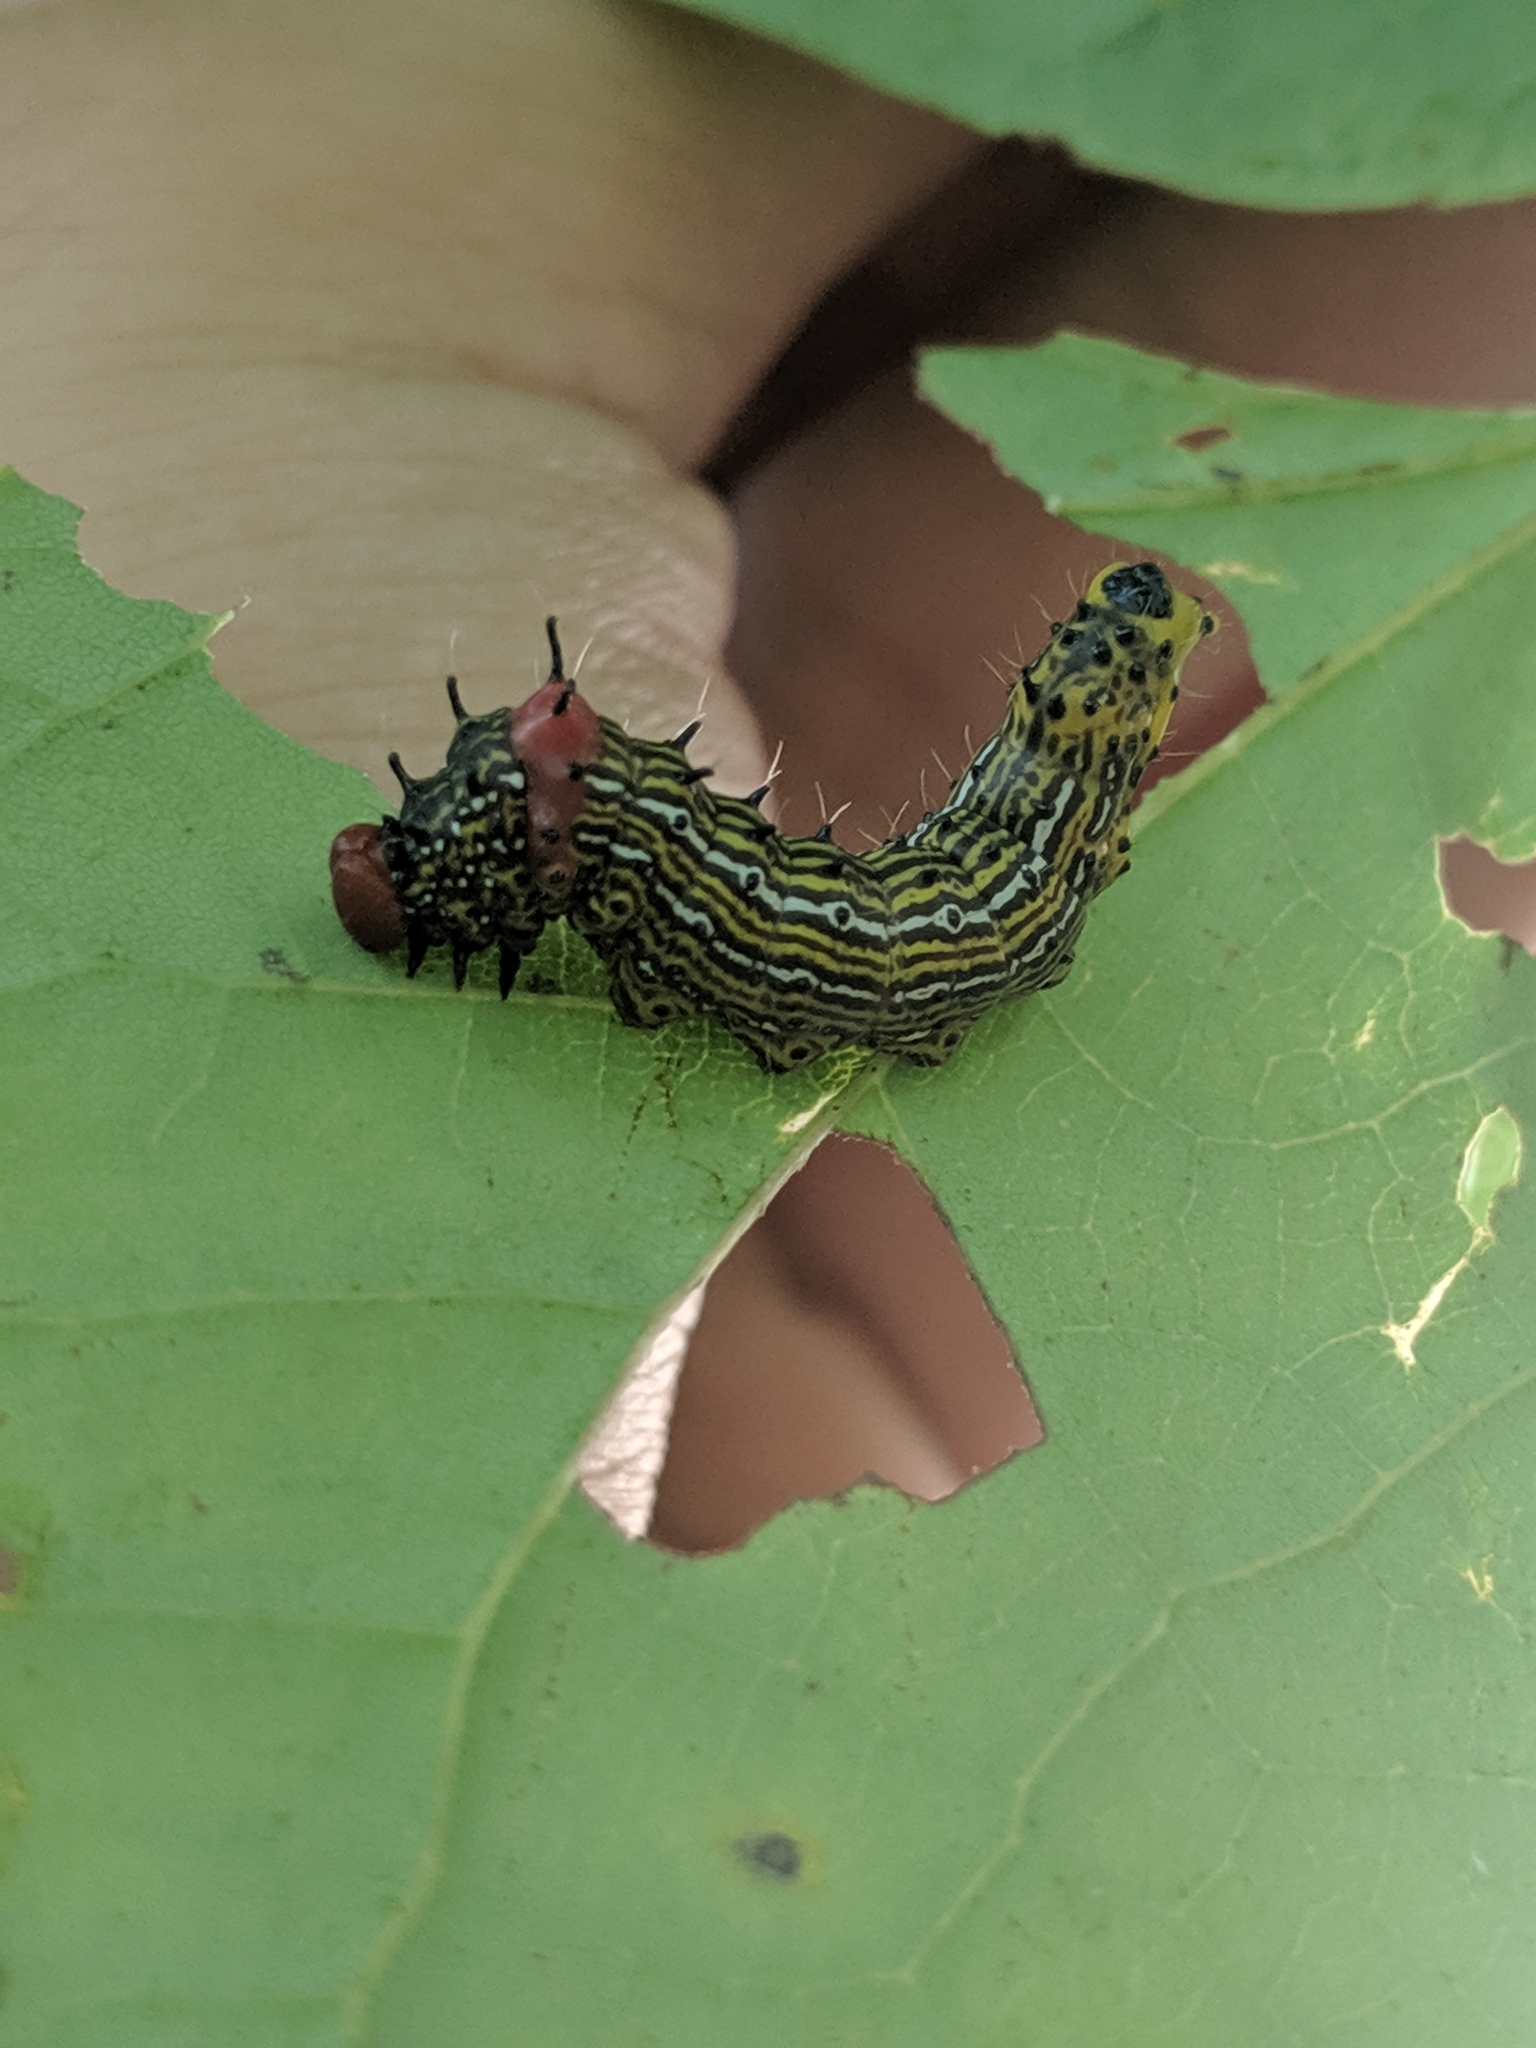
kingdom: Animalia
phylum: Arthropoda
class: Insecta
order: Lepidoptera
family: Notodontidae
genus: Schizura
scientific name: Schizura
